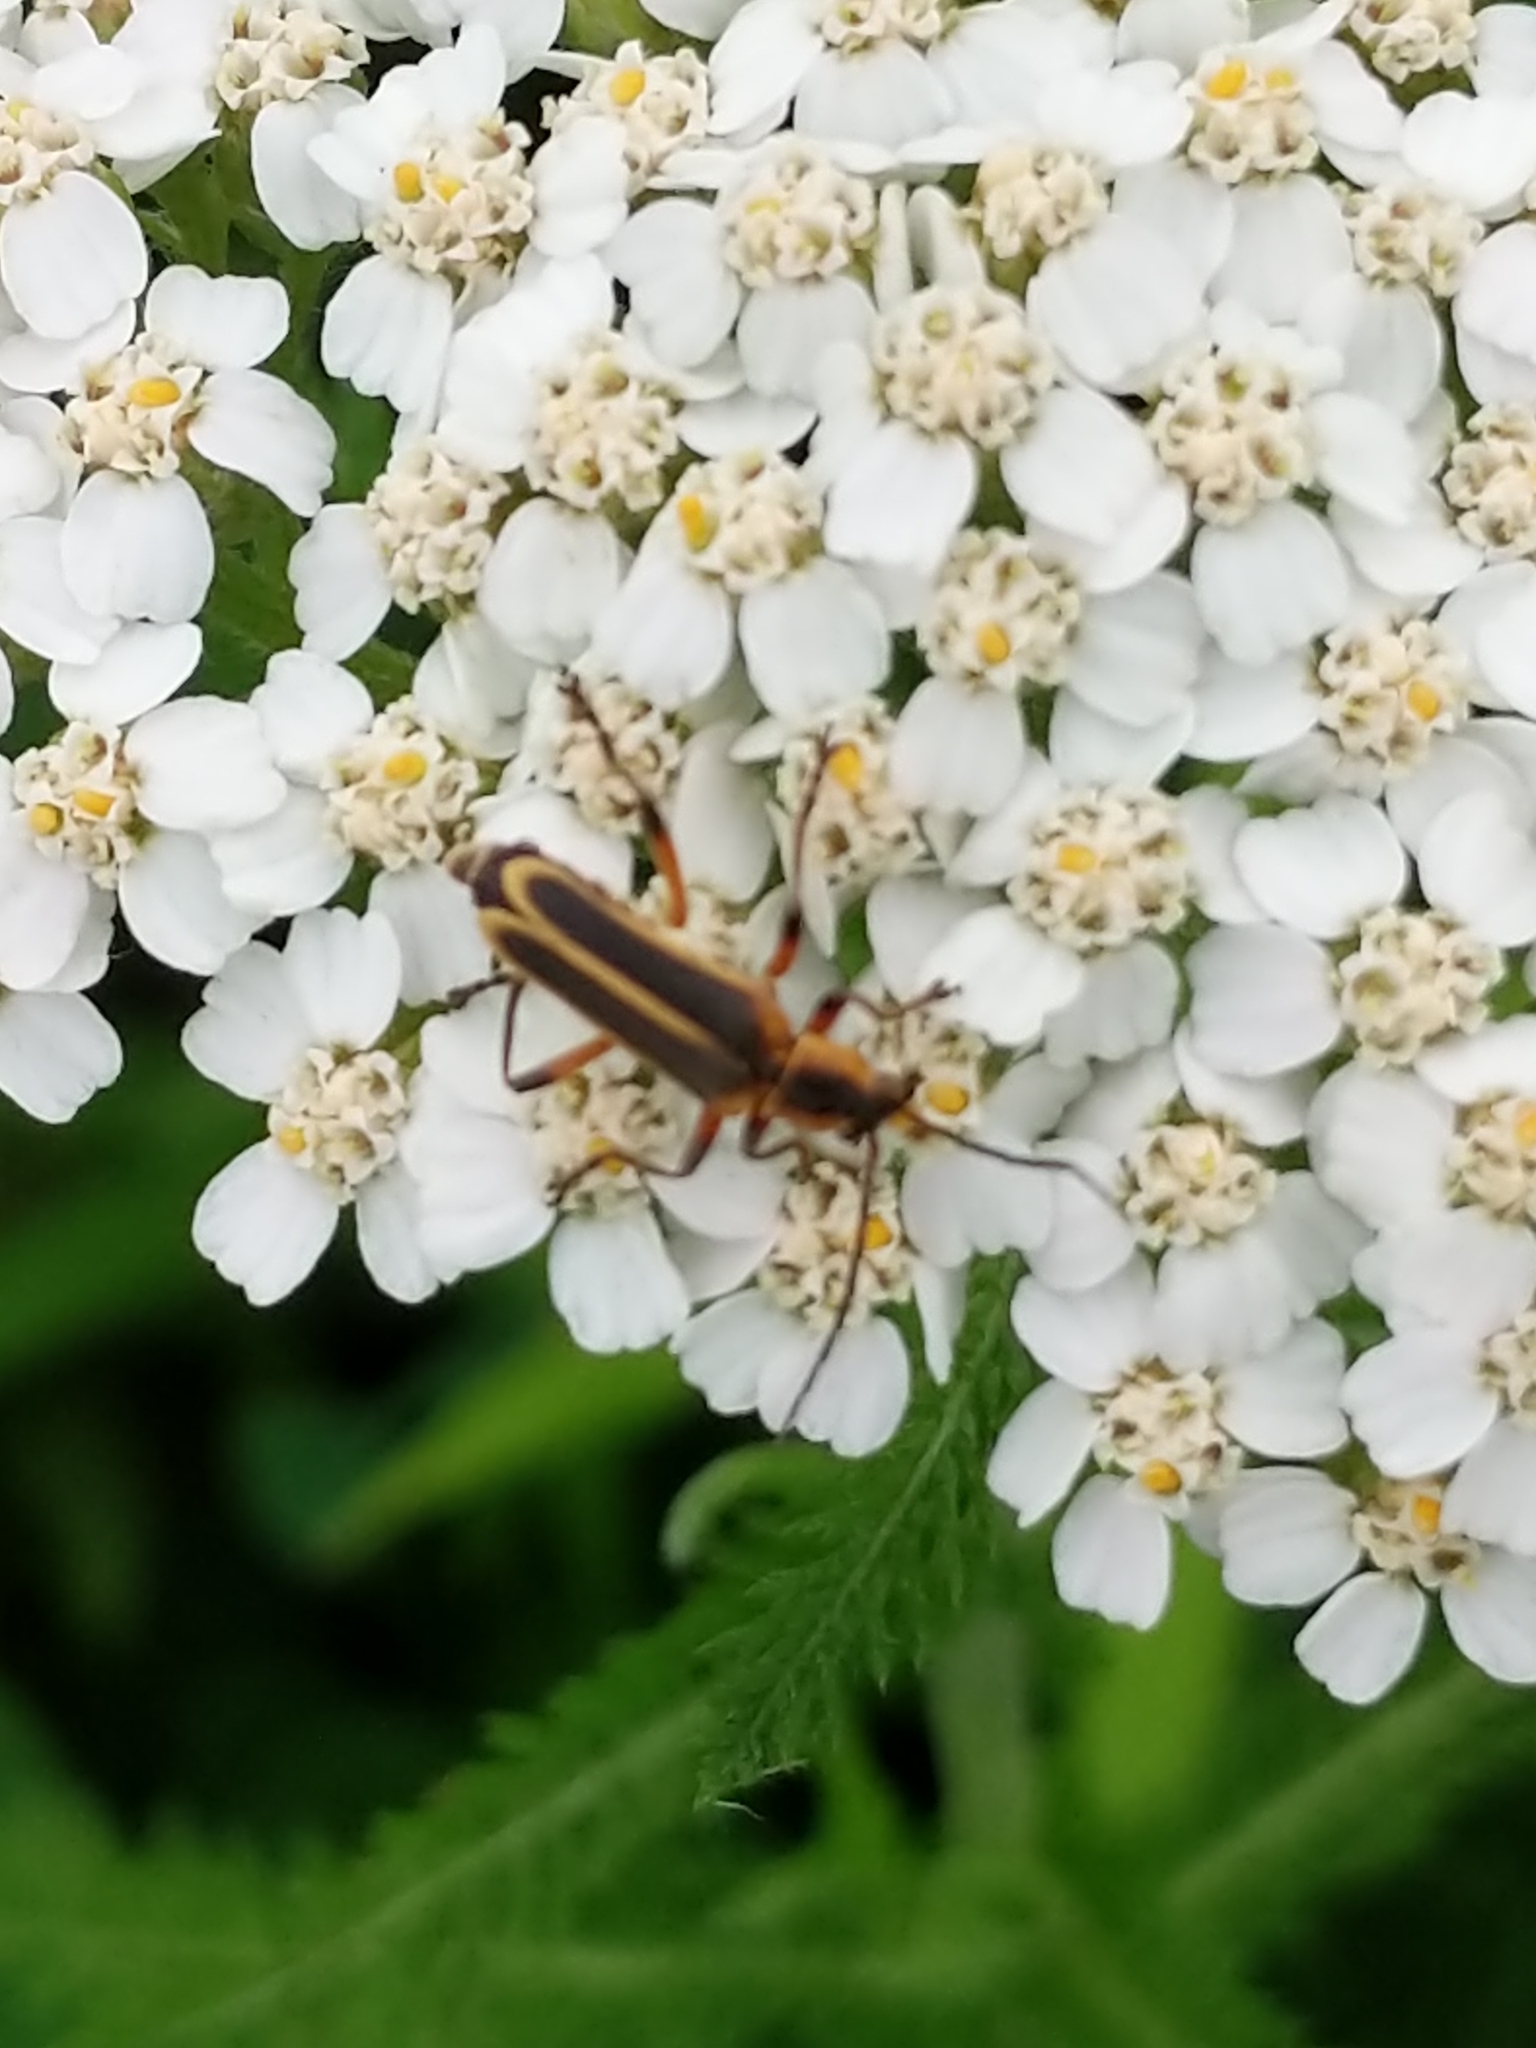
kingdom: Animalia
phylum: Arthropoda
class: Insecta
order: Coleoptera
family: Cantharidae
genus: Chauliognathus
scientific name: Chauliognathus marginatus
